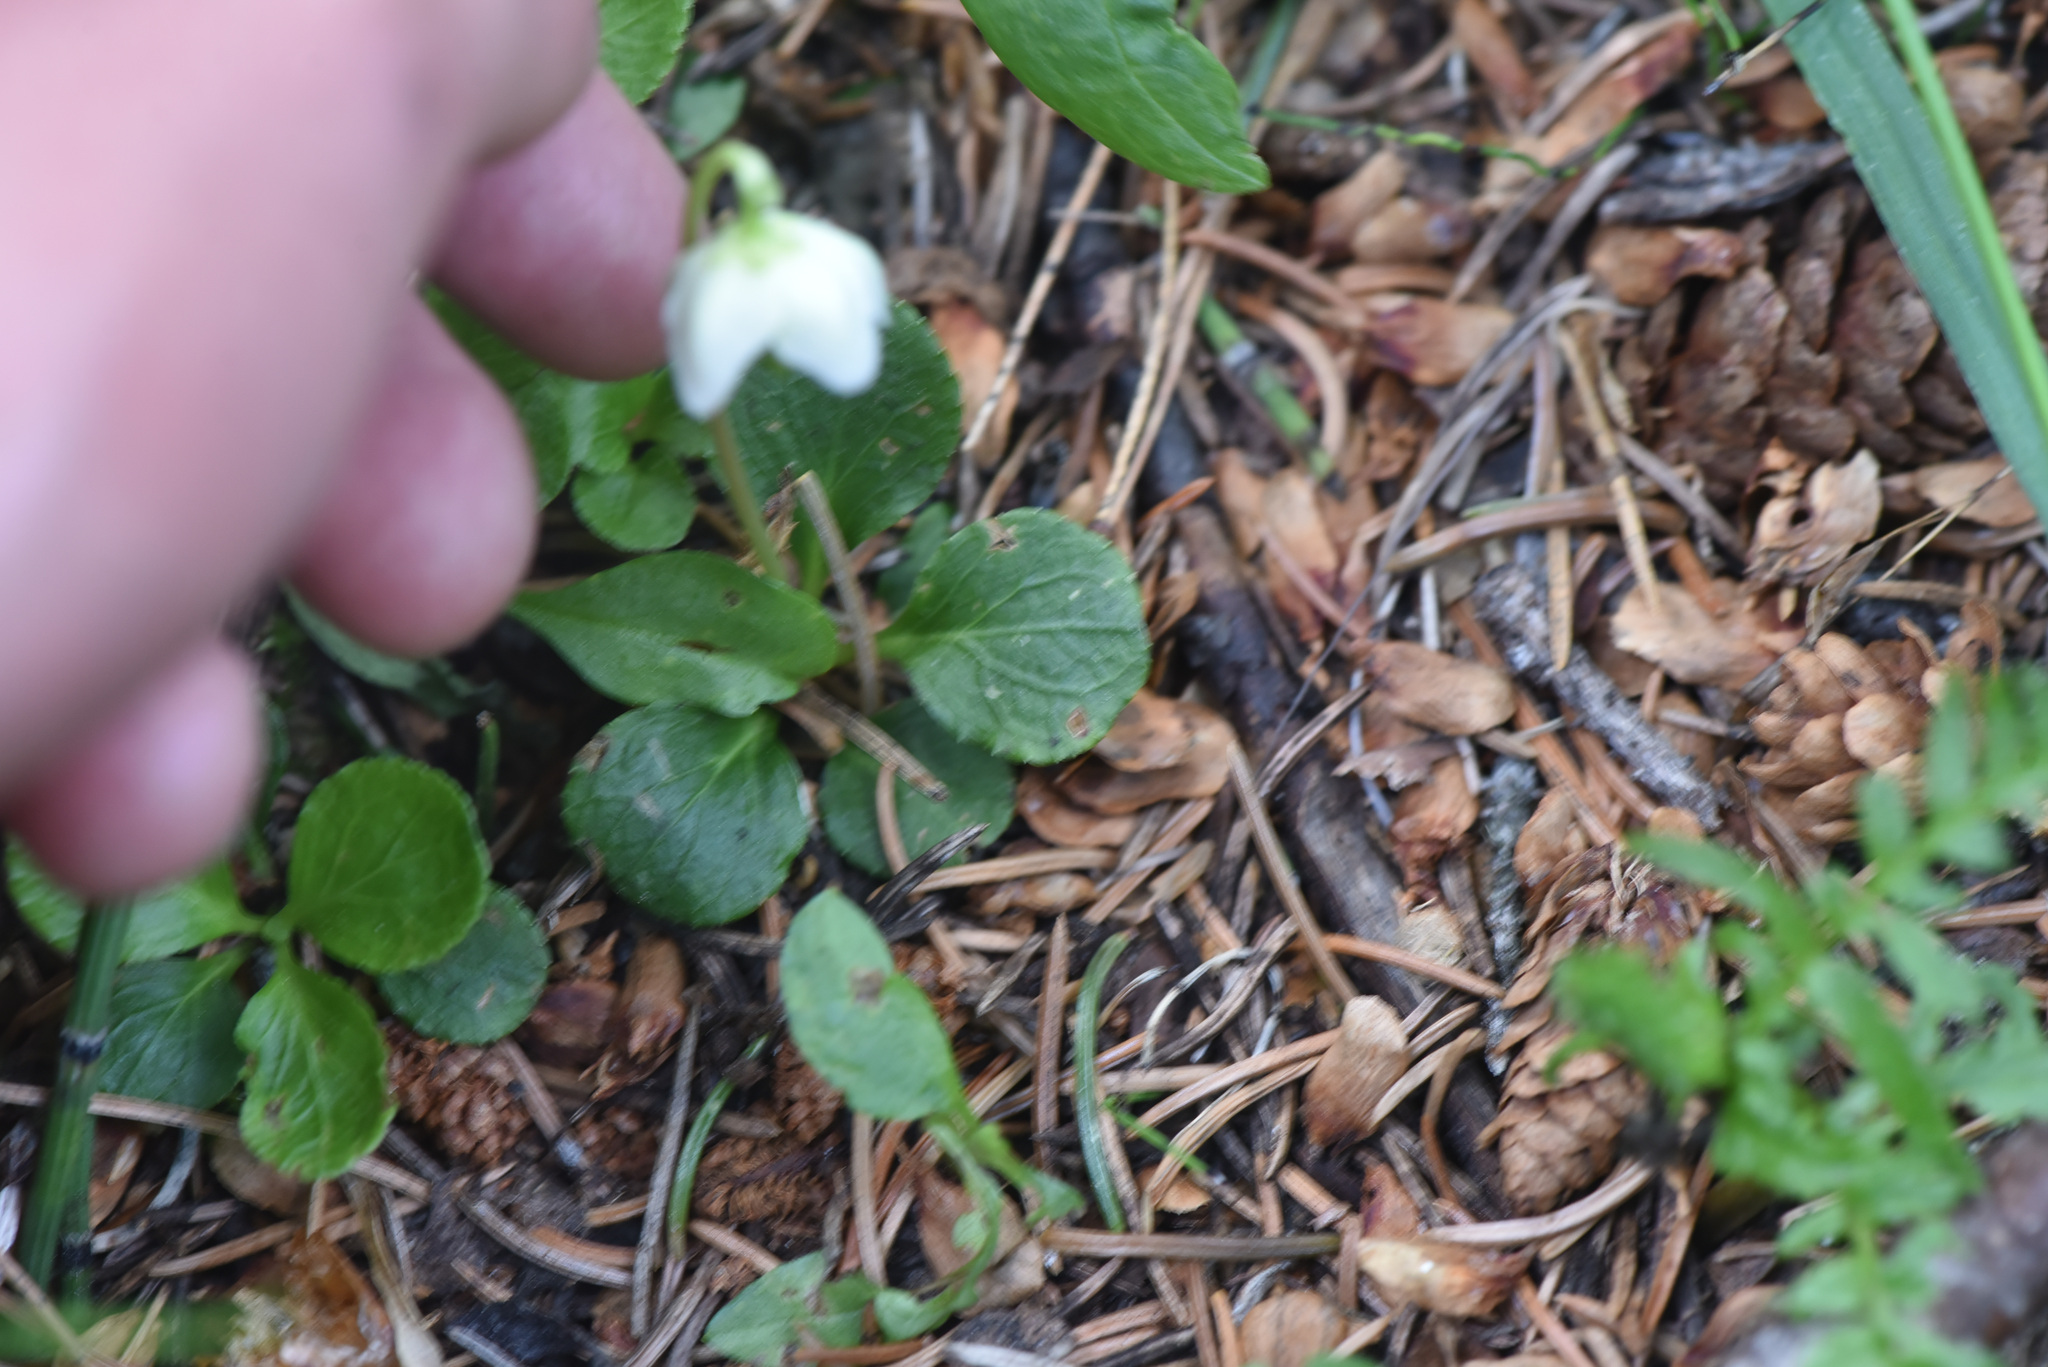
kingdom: Plantae
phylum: Tracheophyta
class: Magnoliopsida
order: Ericales
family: Ericaceae
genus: Moneses
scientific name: Moneses uniflora
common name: One-flowered wintergreen
